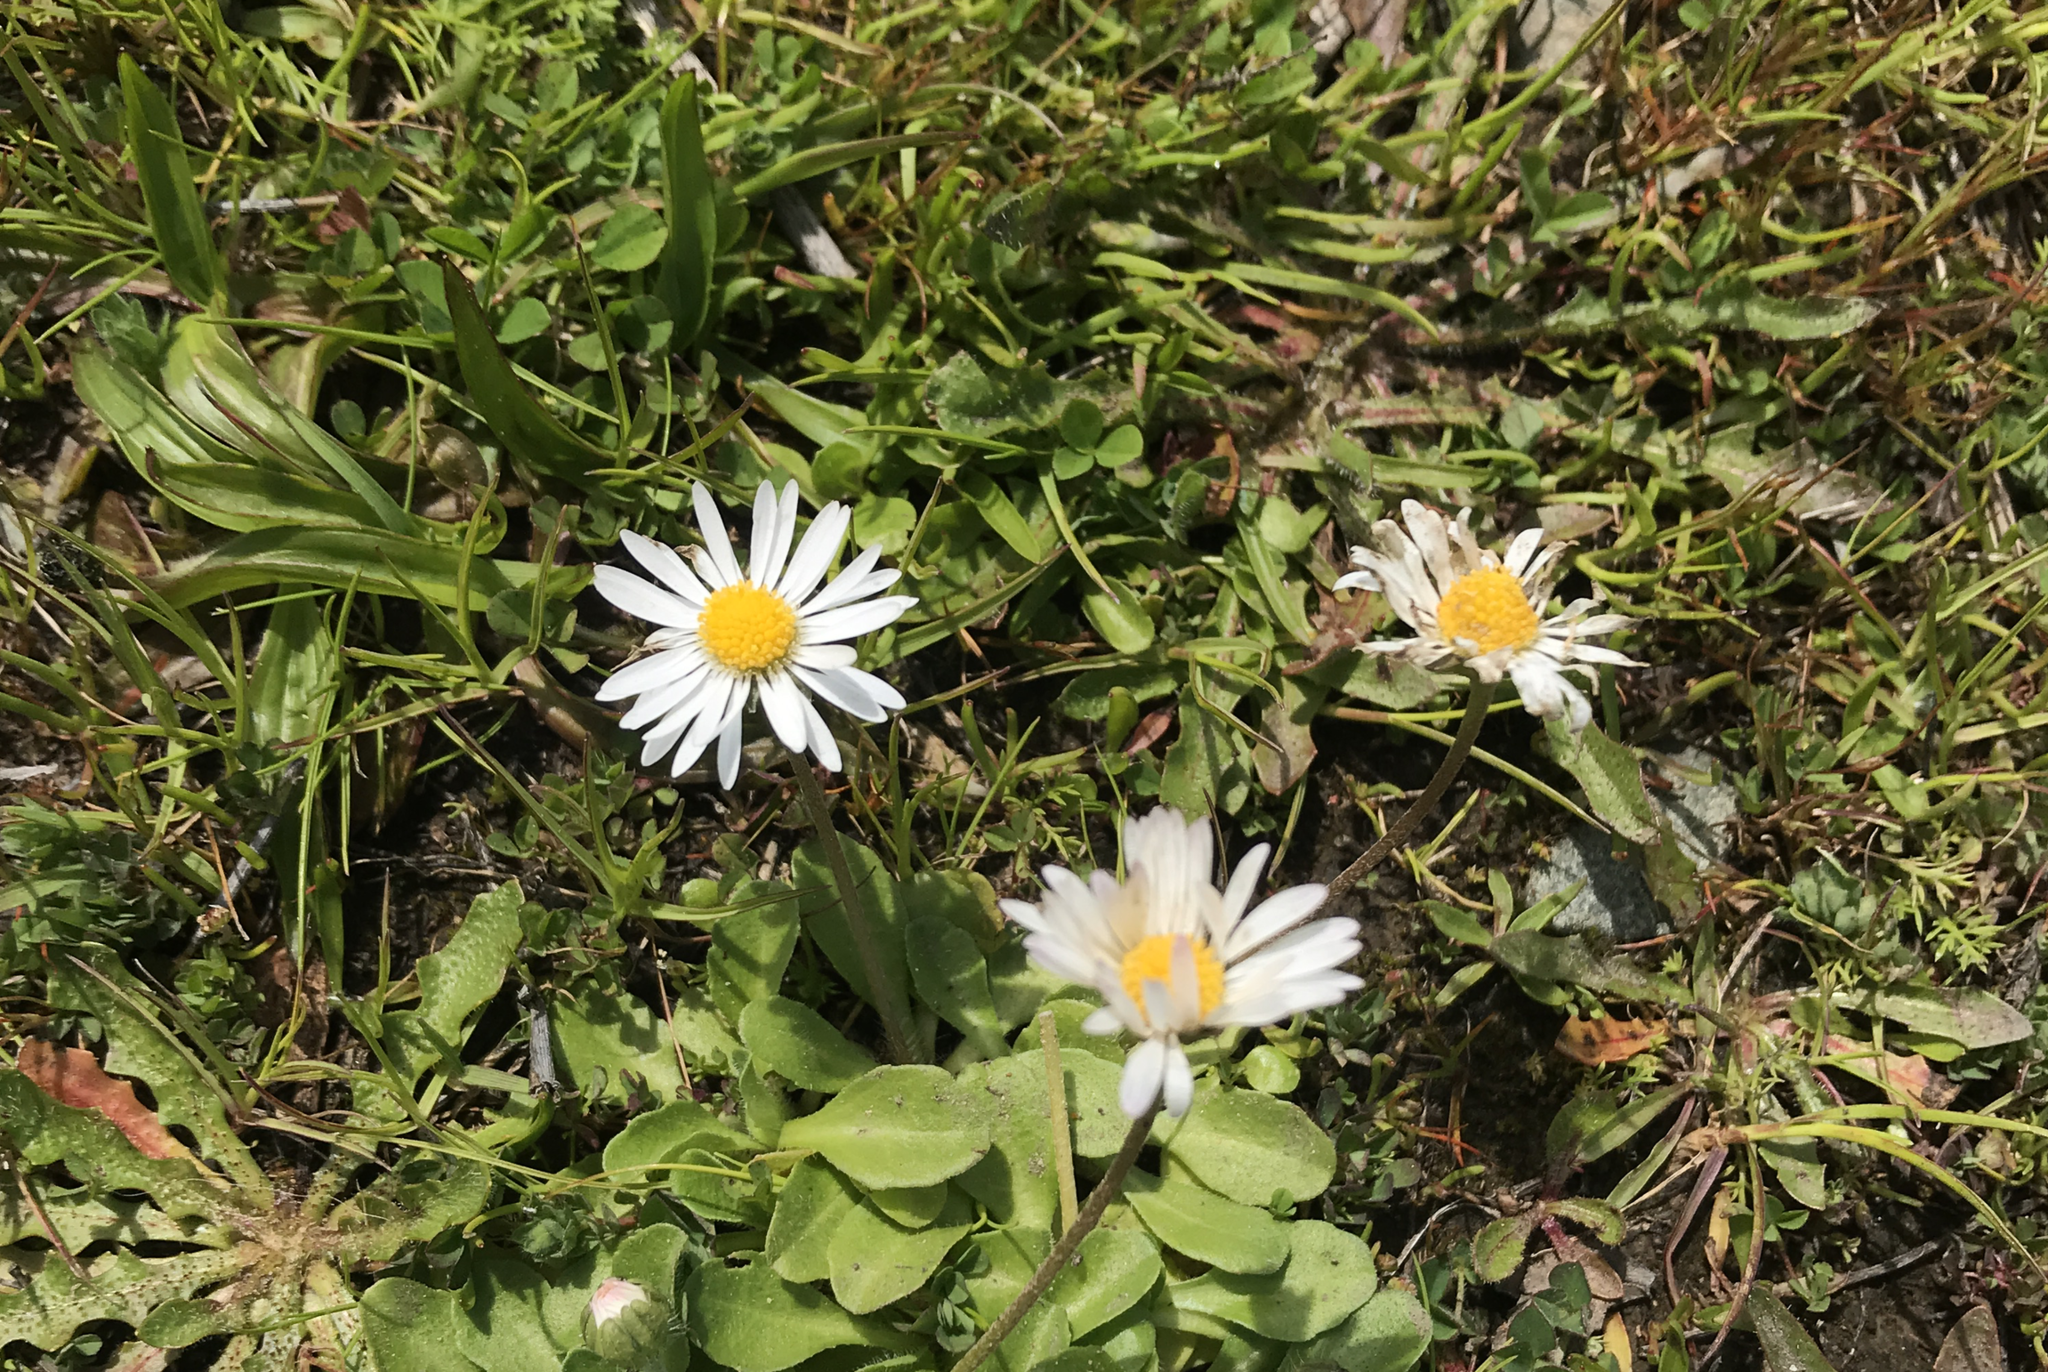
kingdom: Plantae
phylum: Tracheophyta
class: Magnoliopsida
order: Asterales
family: Asteraceae
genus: Bellis
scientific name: Bellis perennis
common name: Lawndaisy
